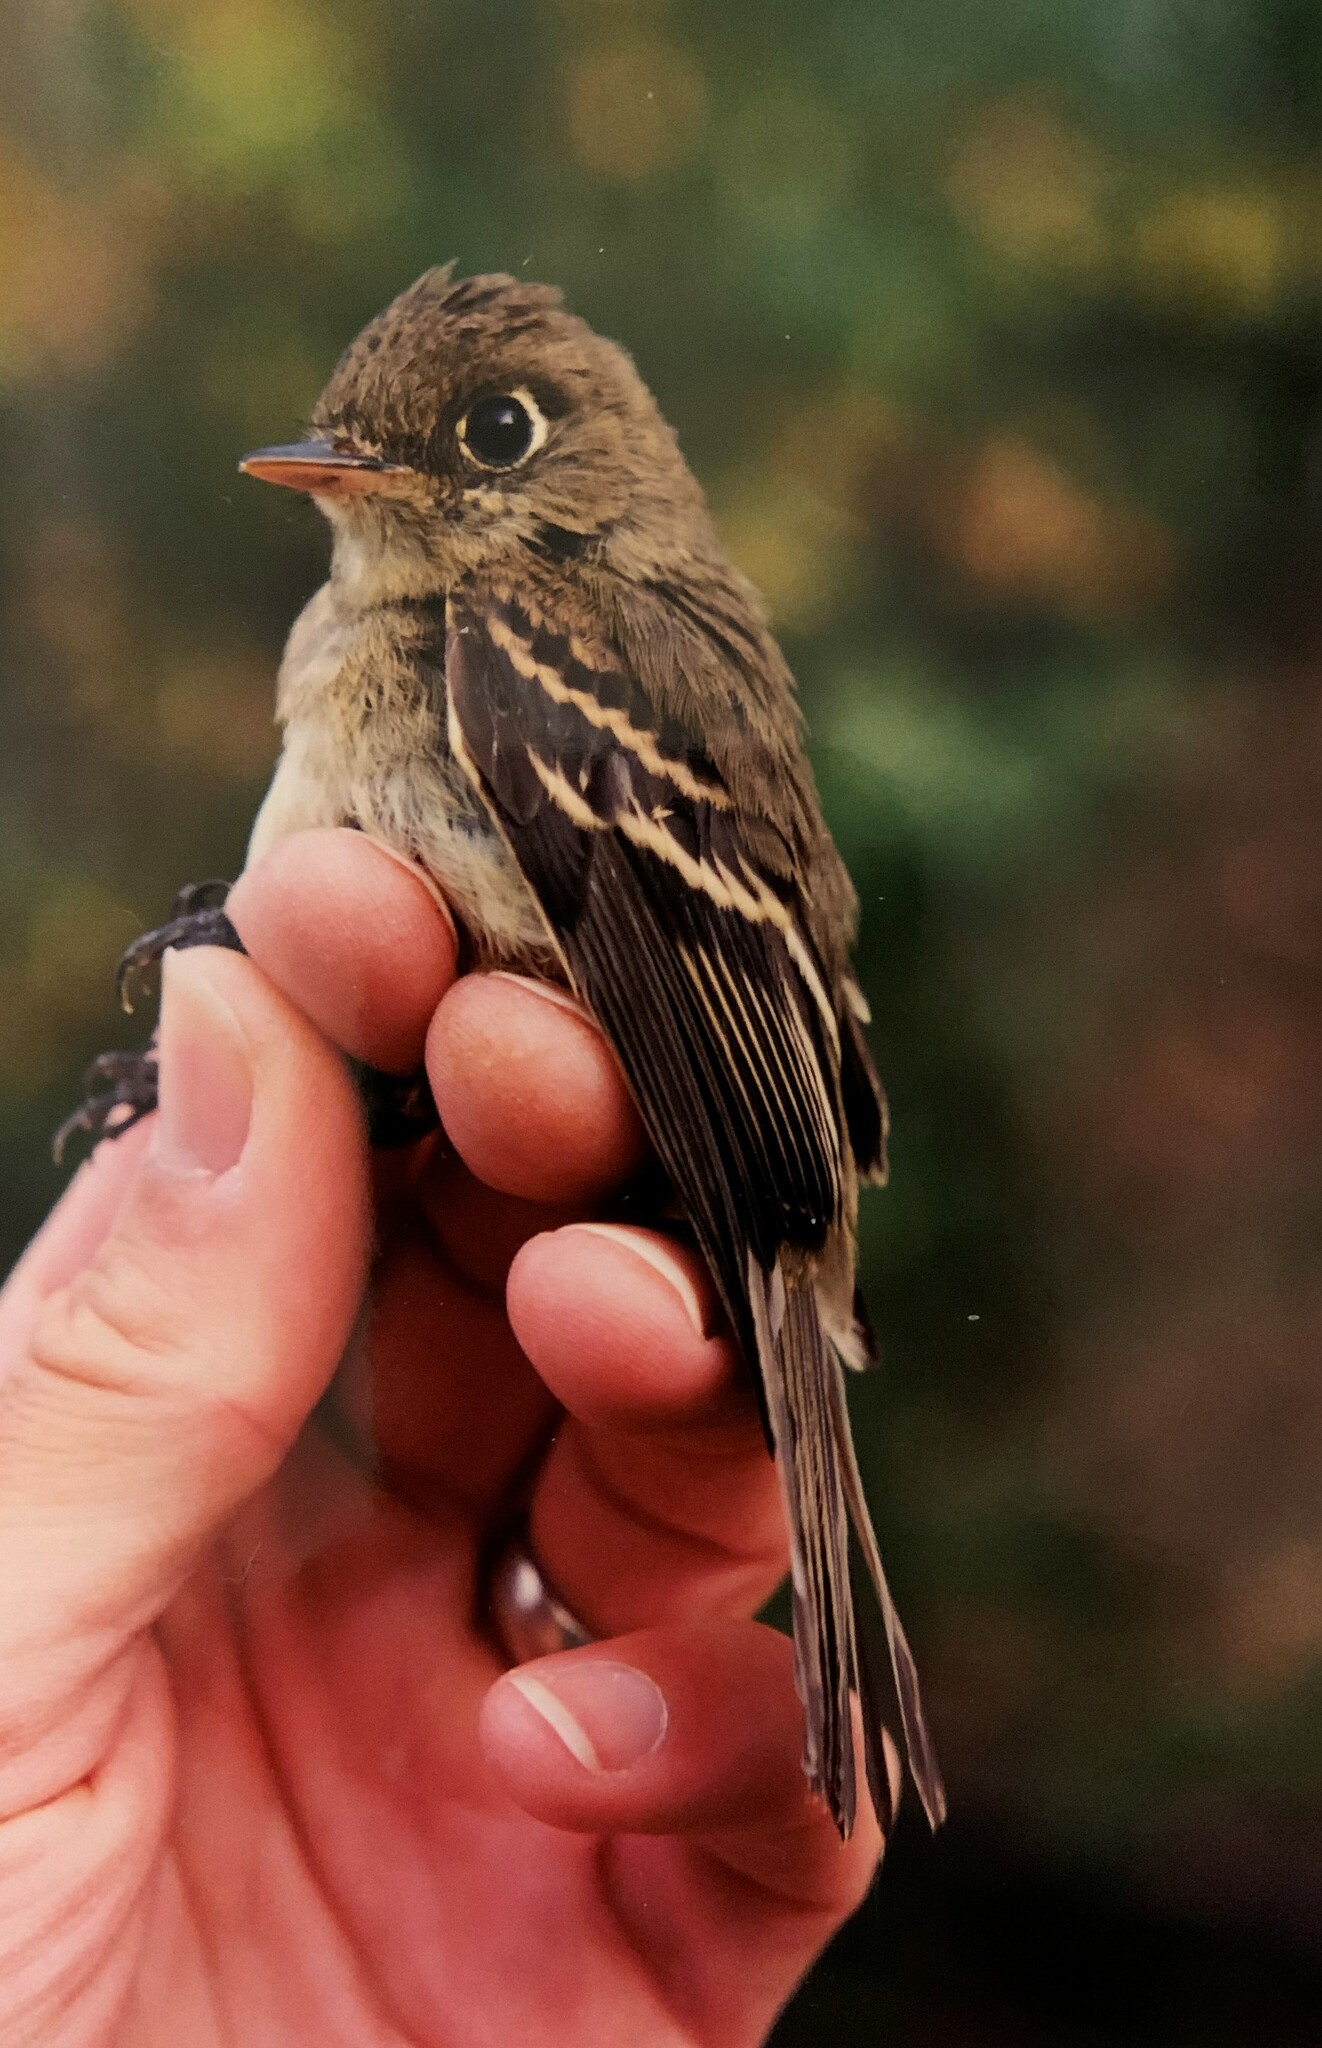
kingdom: Animalia
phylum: Chordata
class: Aves
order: Passeriformes
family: Tyrannidae
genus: Empidonax
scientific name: Empidonax difficilis
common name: Pacific-slope flycatcher
